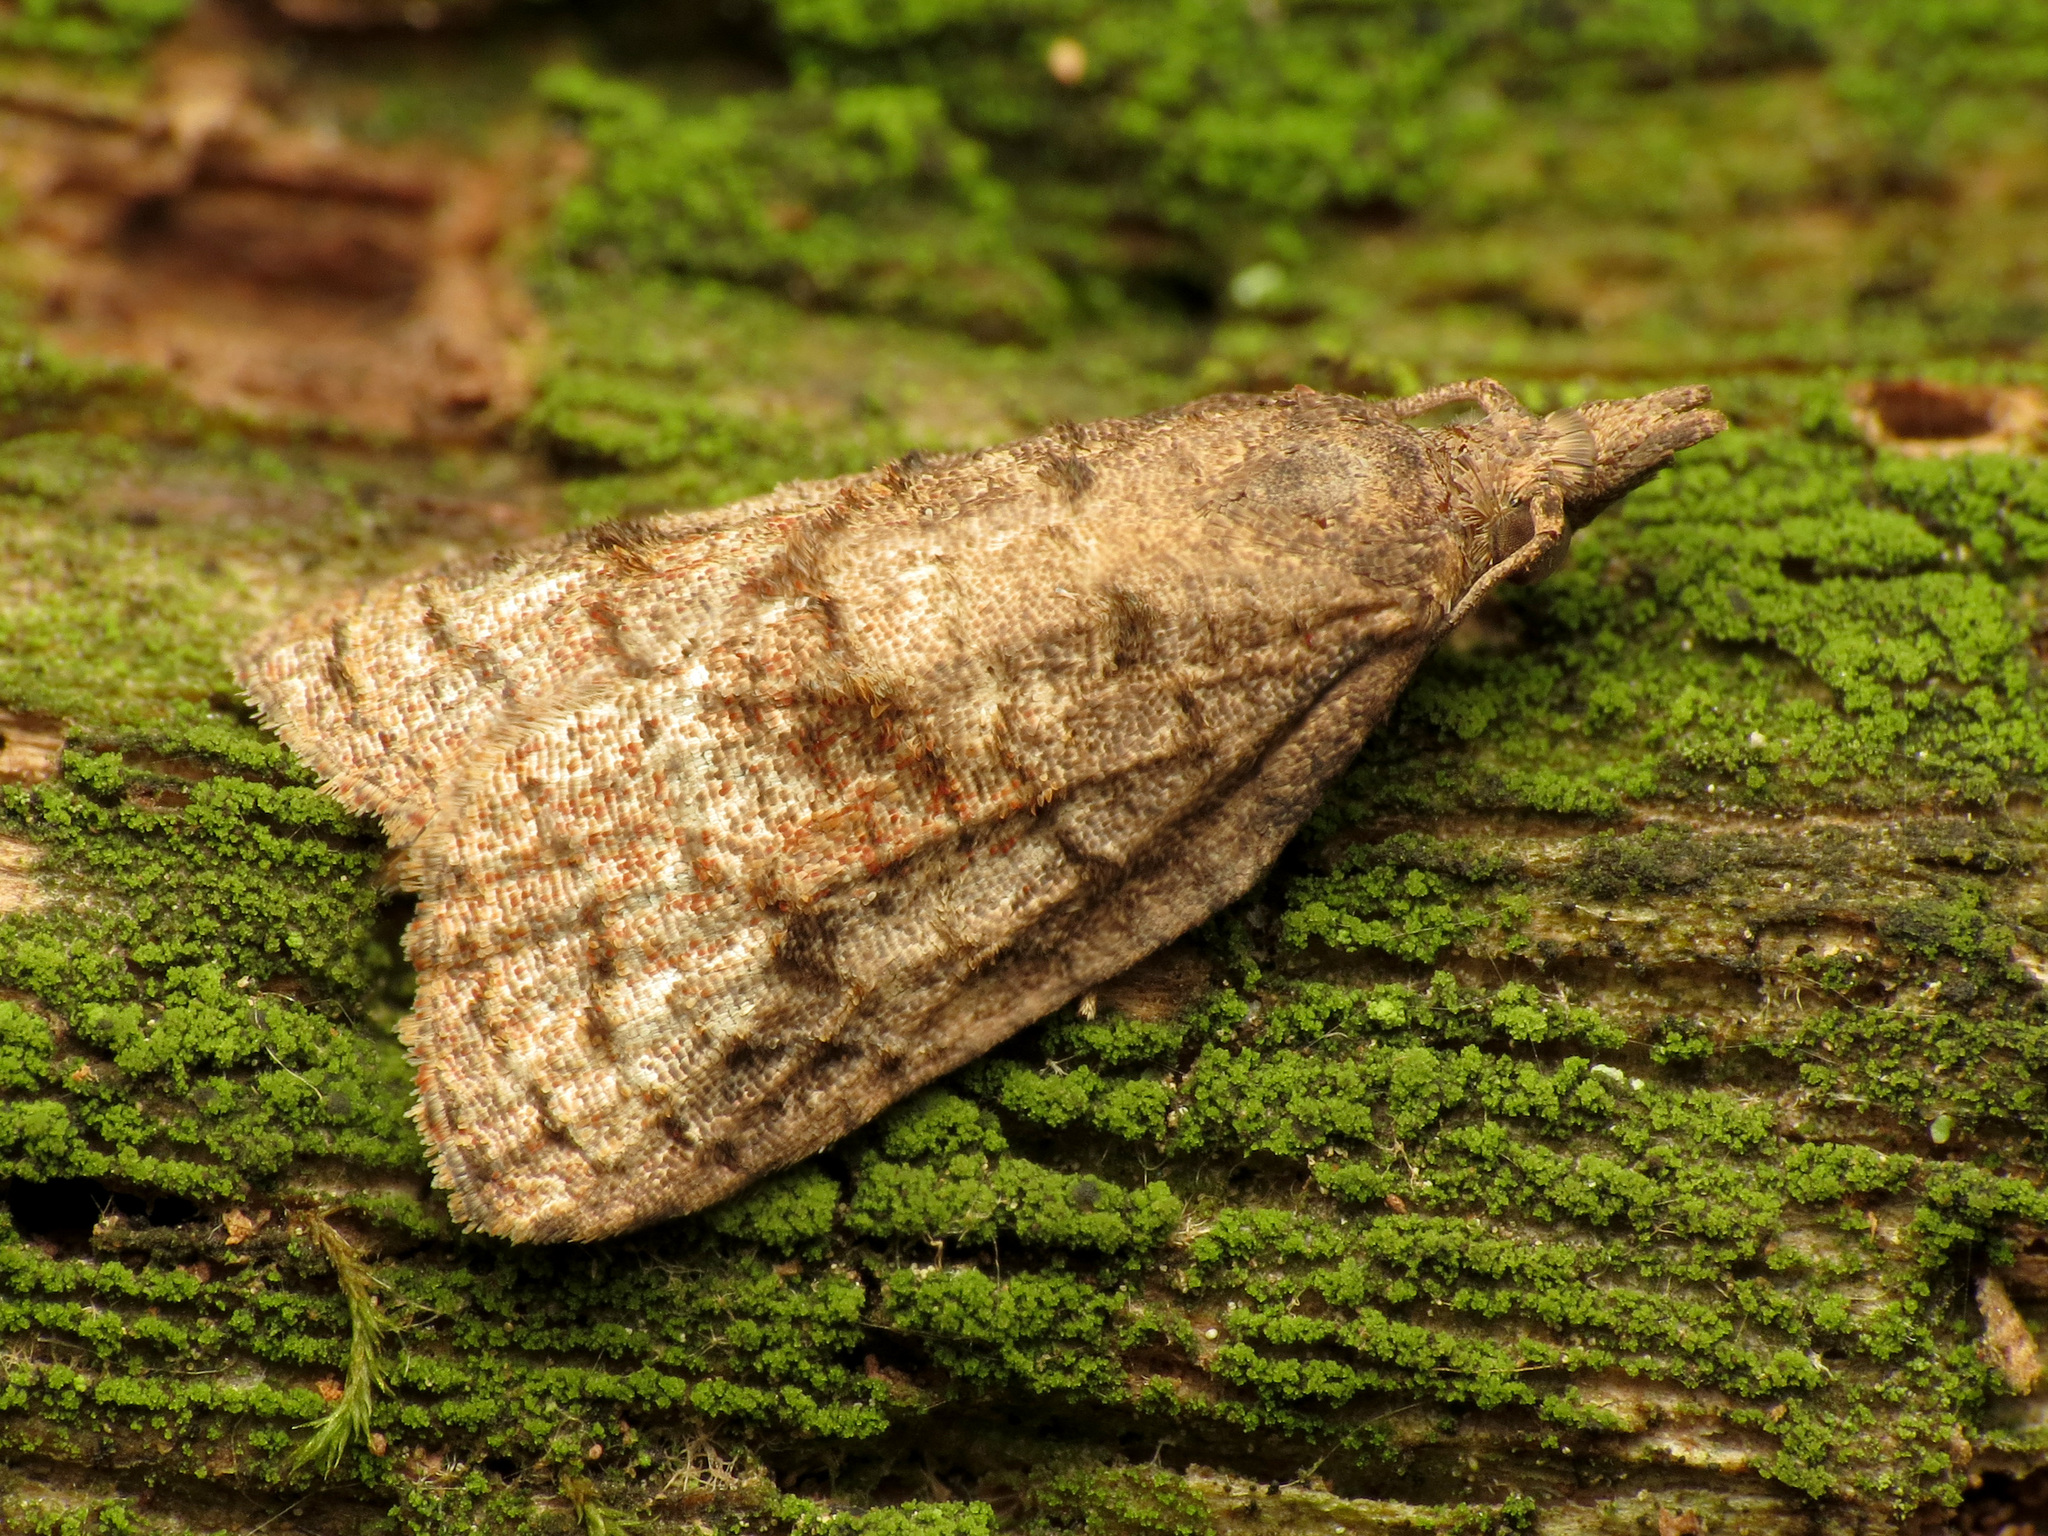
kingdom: Animalia
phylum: Arthropoda
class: Insecta
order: Lepidoptera
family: Tortricidae
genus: Platynota
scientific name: Platynota idaeusalis
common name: Tufted apple bud moth
